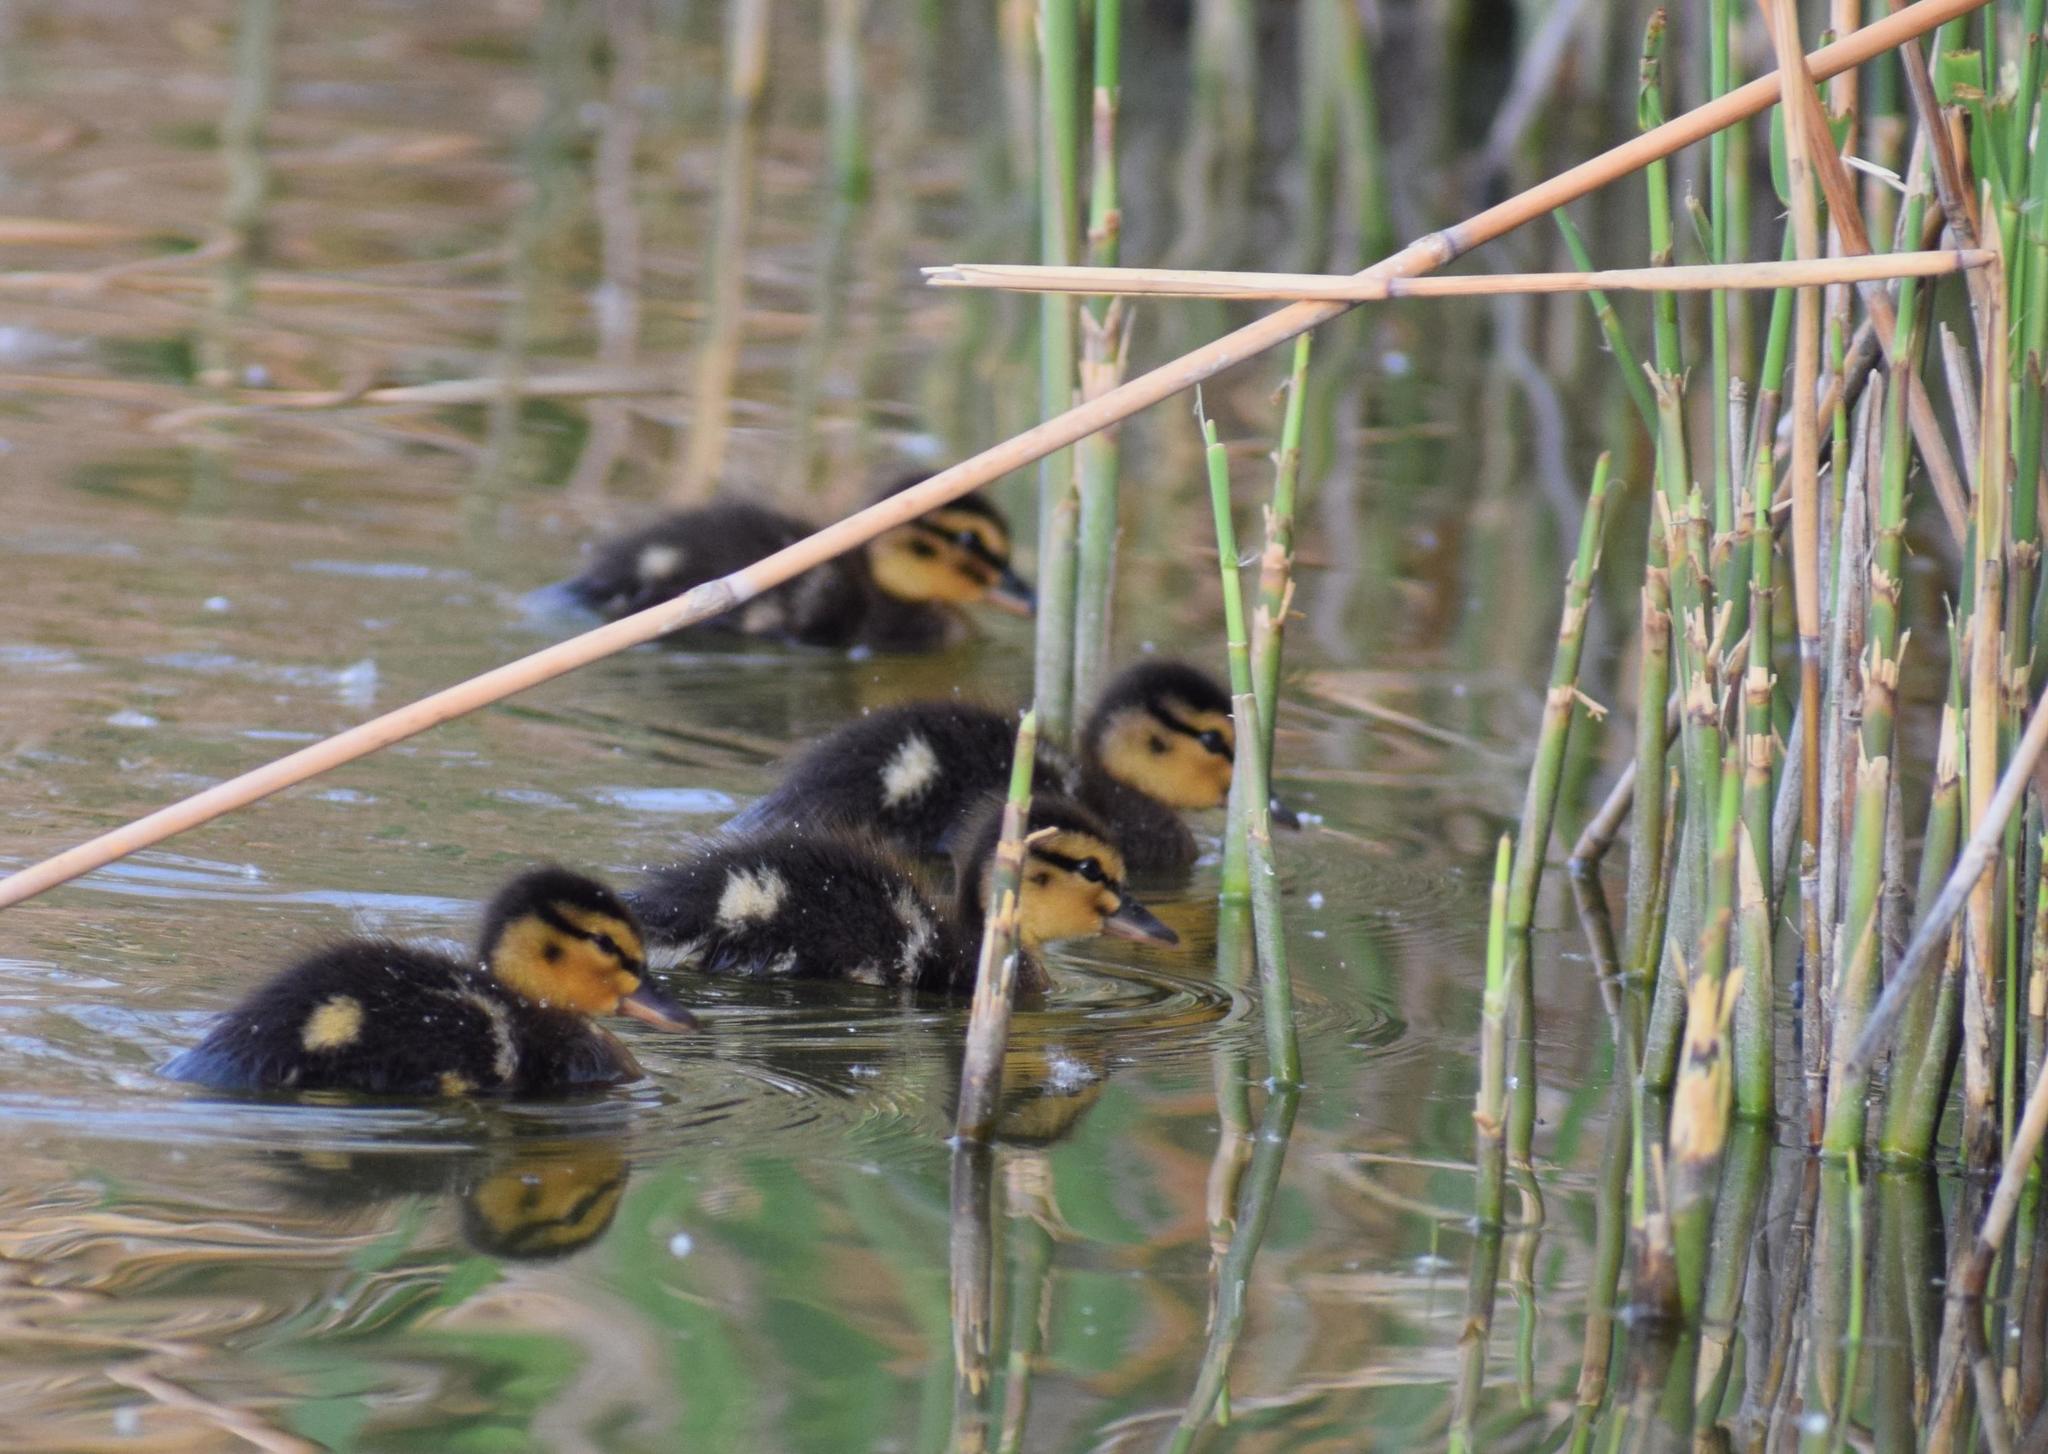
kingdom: Animalia
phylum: Chordata
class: Aves
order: Anseriformes
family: Anatidae
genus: Anas
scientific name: Anas platyrhynchos
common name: Mallard
